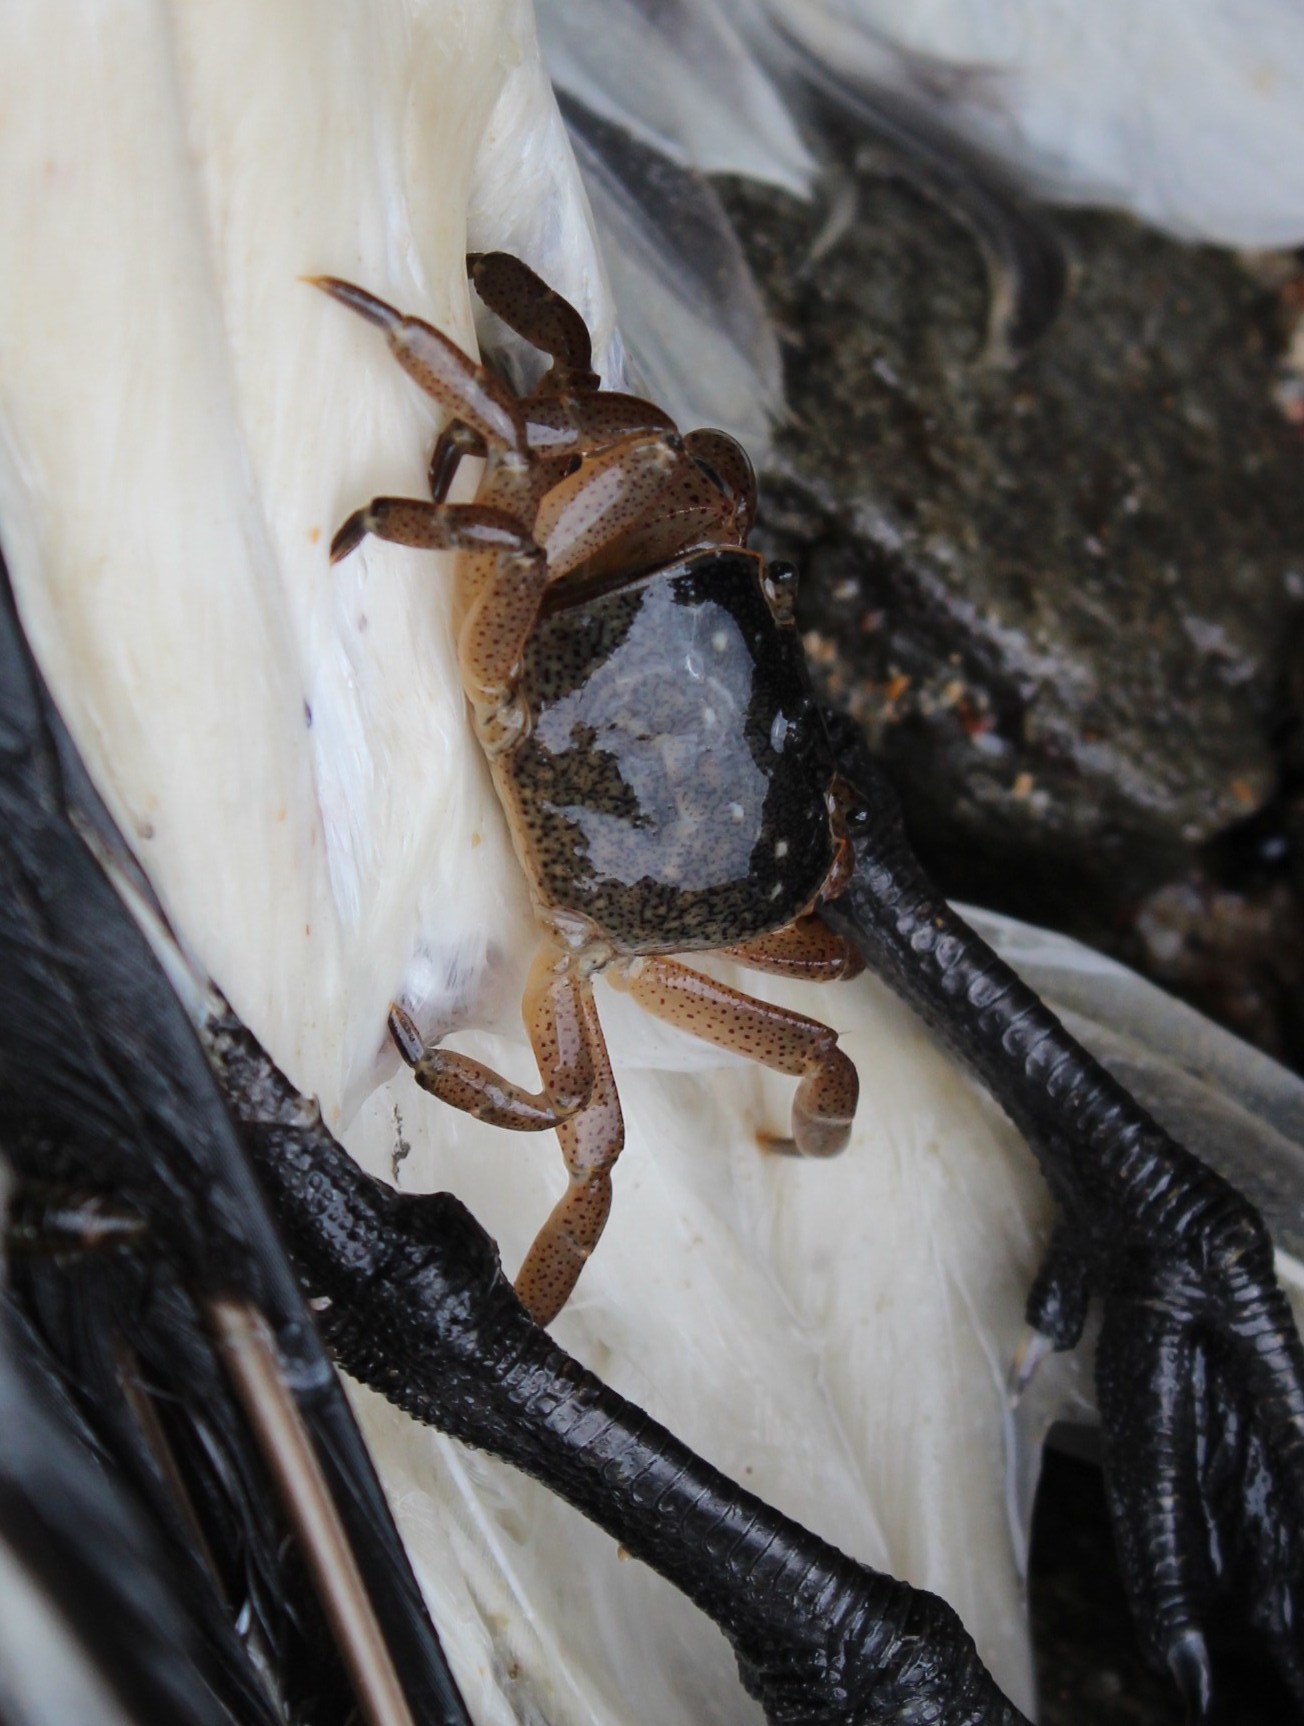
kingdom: Animalia
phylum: Arthropoda
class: Malacostraca
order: Decapoda
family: Varunidae
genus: Cyclograpsus
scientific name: Cyclograpsus punctatus
